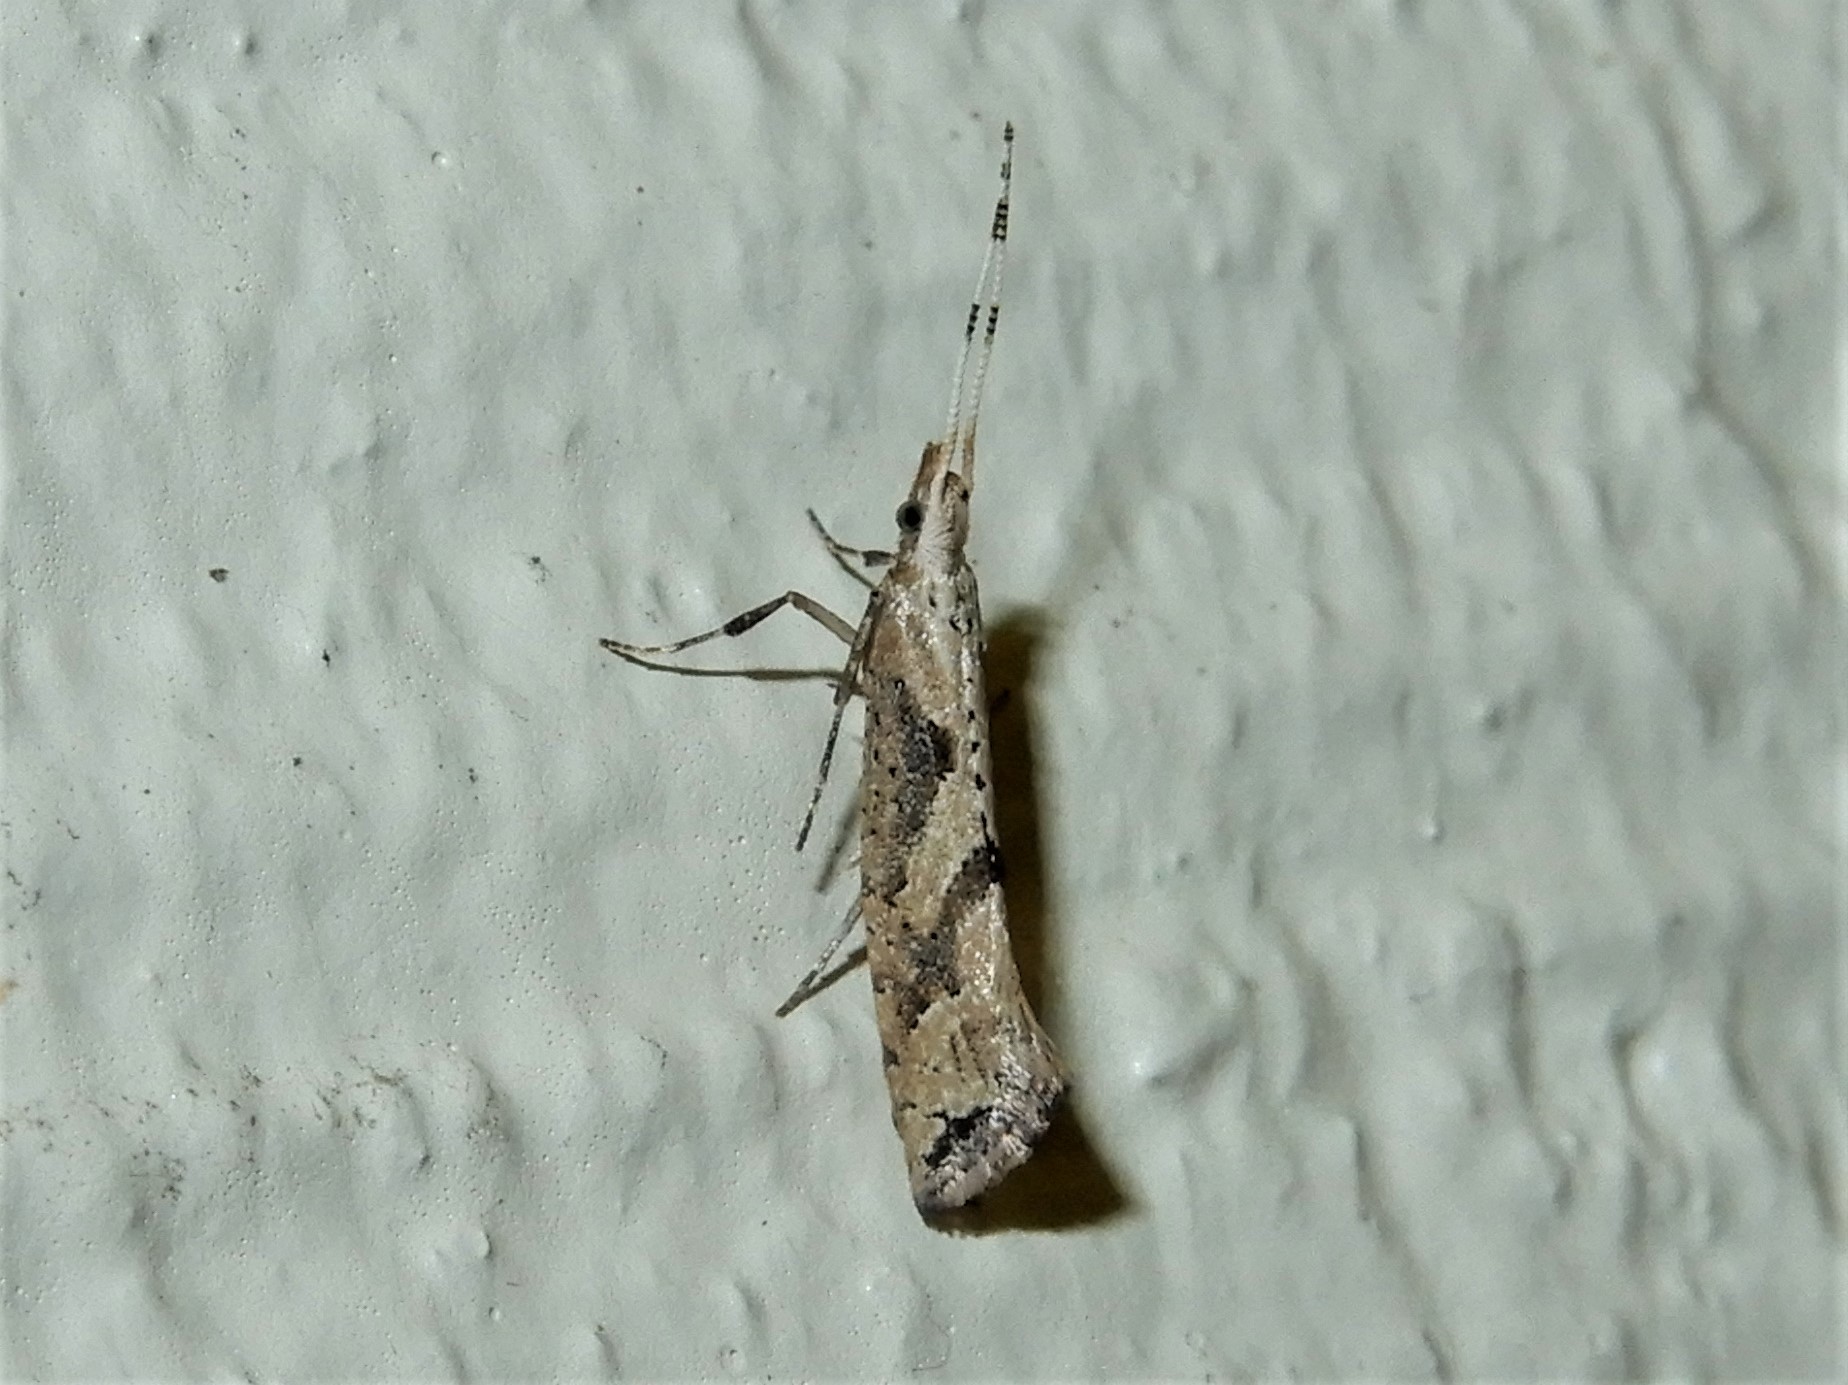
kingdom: Animalia
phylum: Arthropoda
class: Insecta
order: Lepidoptera
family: Plutellidae
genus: Leuroperna
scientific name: Leuroperna sera
